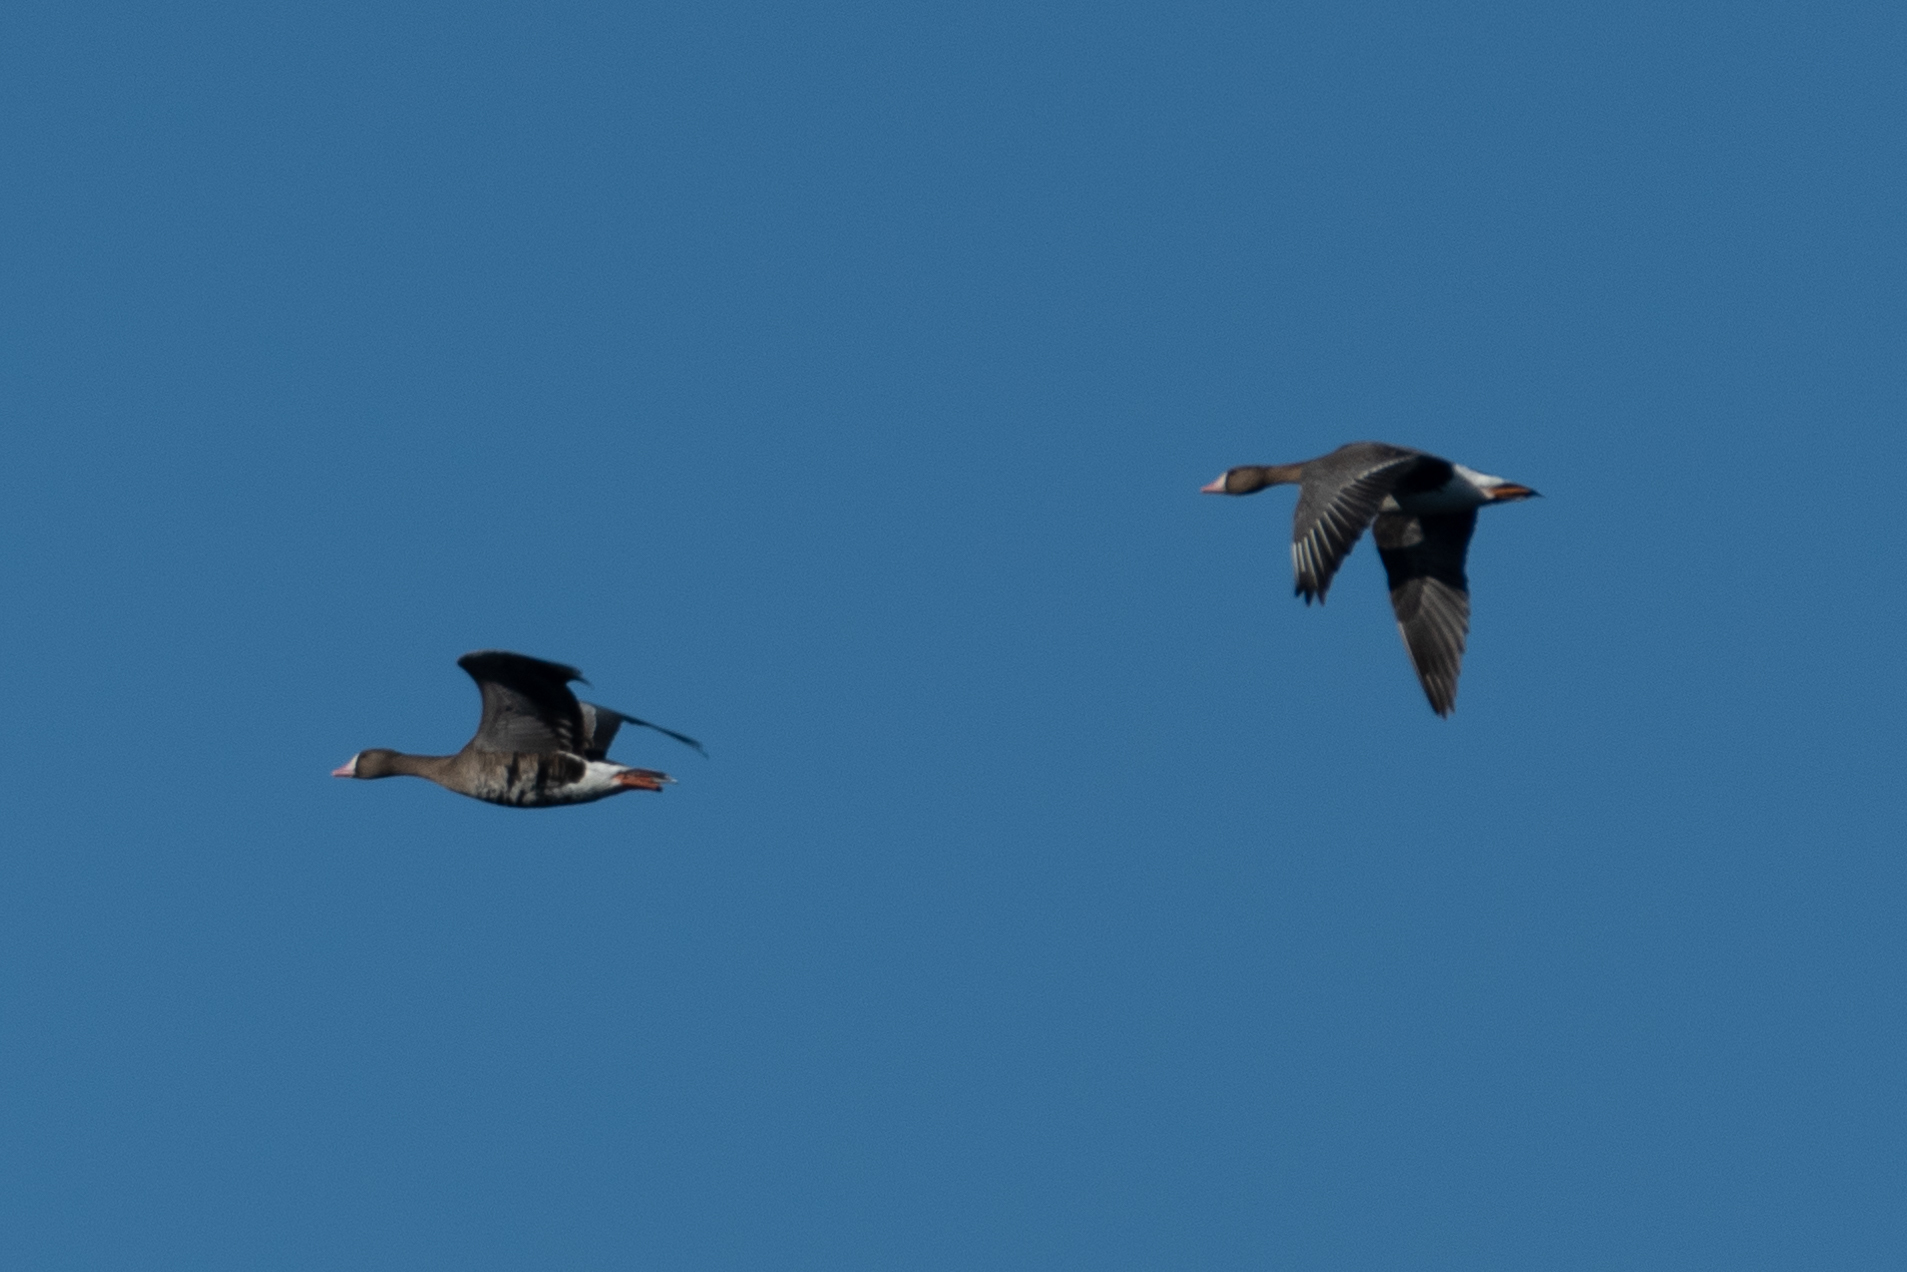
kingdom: Animalia
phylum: Chordata
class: Aves
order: Anseriformes
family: Anatidae
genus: Anser
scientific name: Anser albifrons
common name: Greater white-fronted goose
